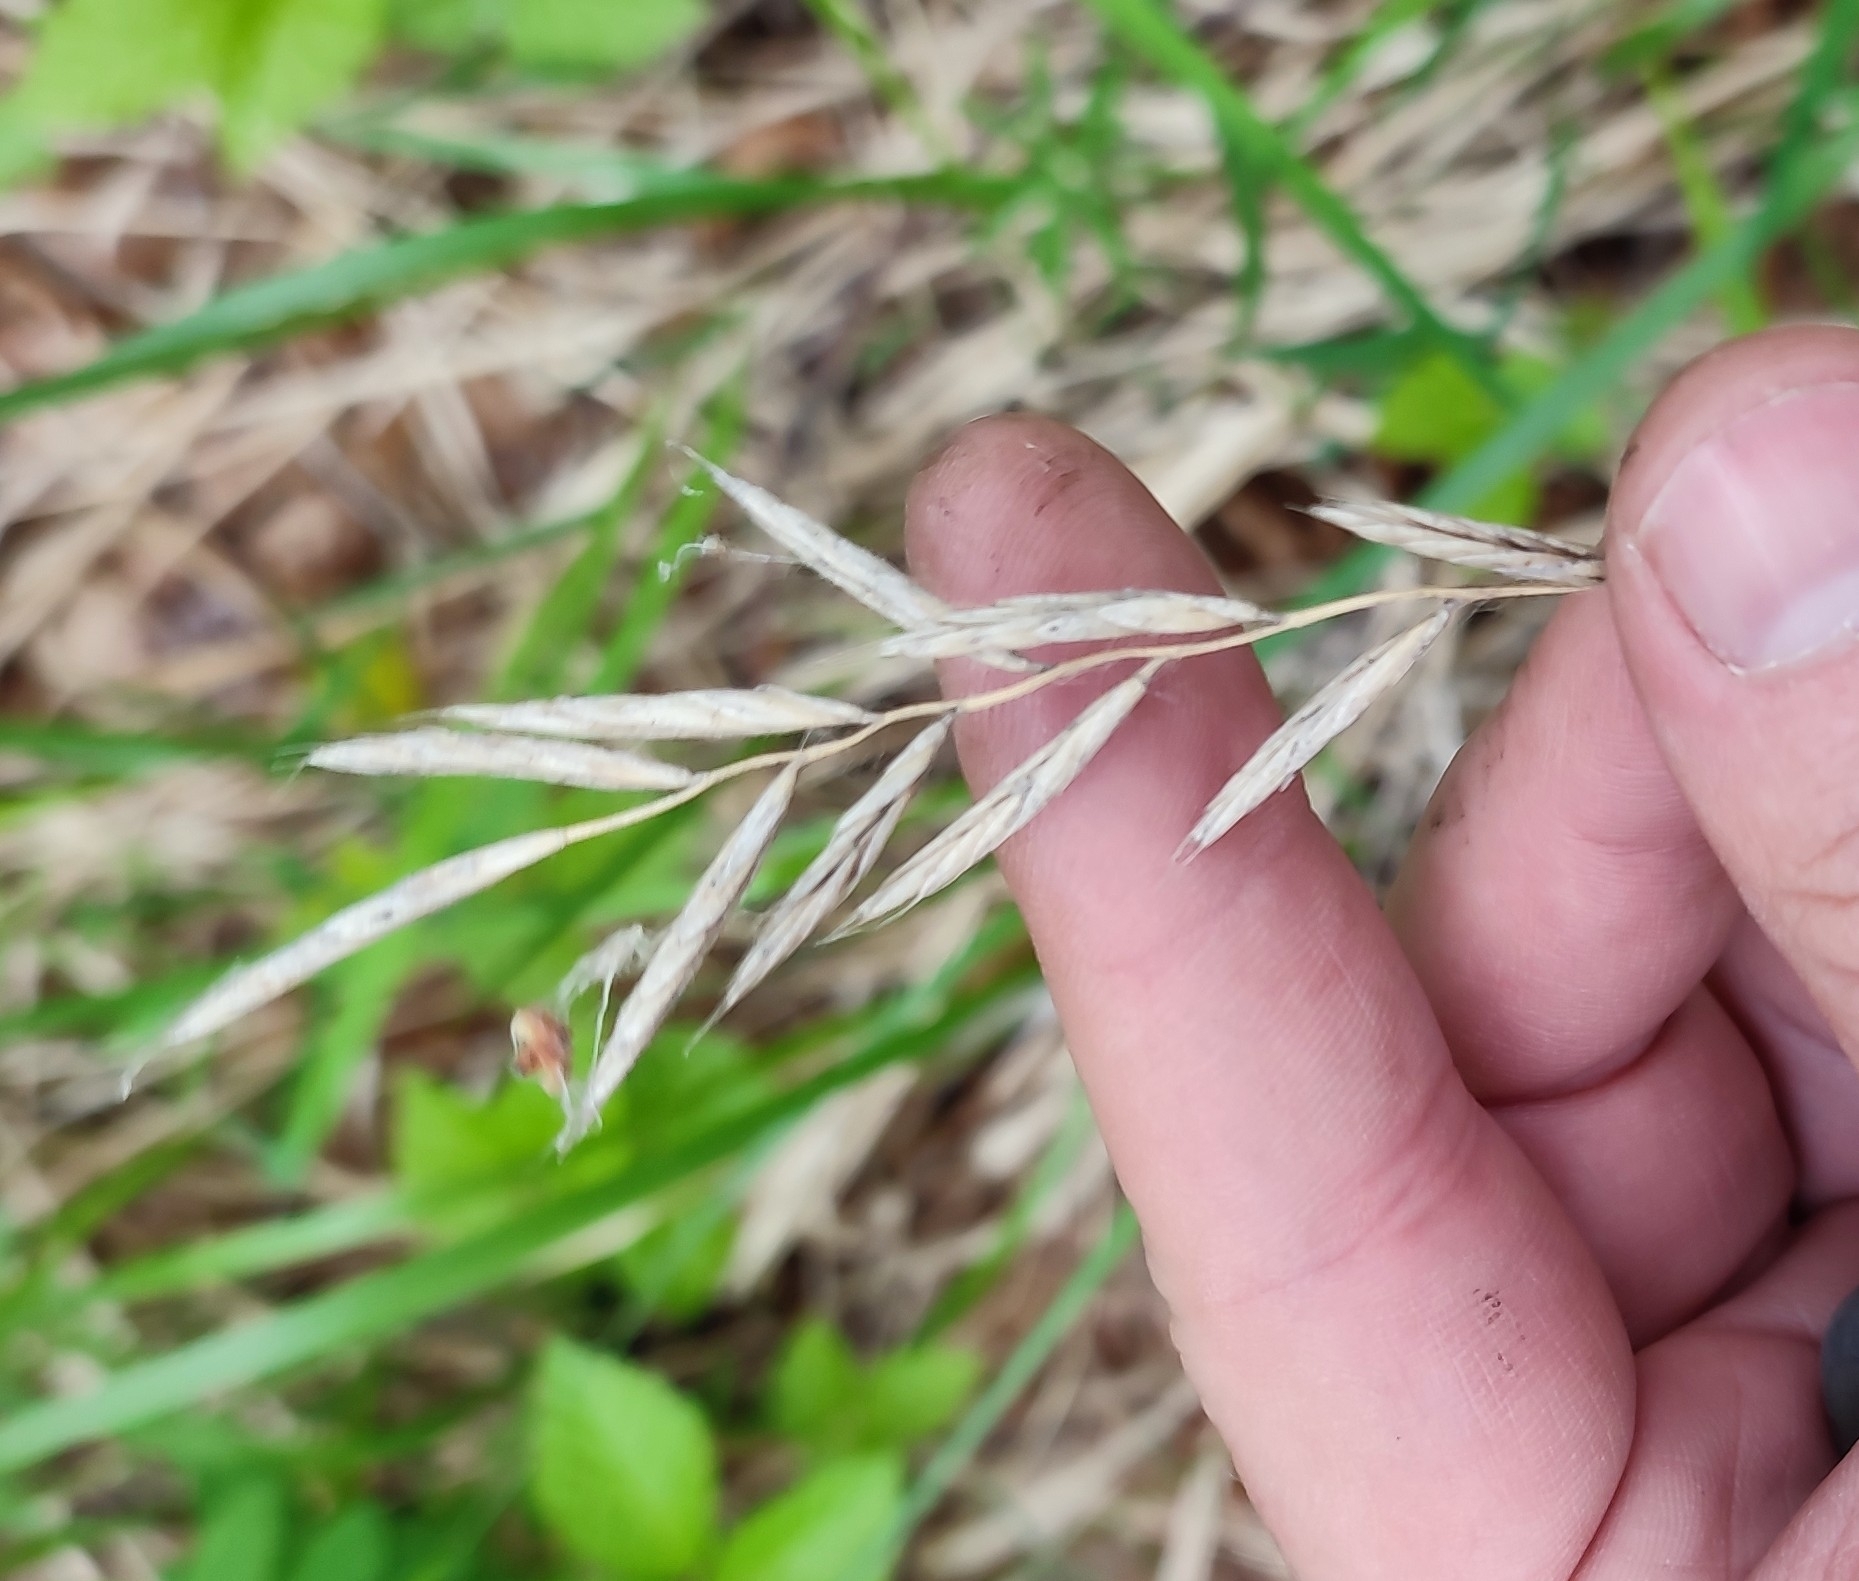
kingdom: Plantae
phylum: Tracheophyta
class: Liliopsida
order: Poales
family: Poaceae
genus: Brachypodium
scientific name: Brachypodium pinnatum
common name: Tor grass
